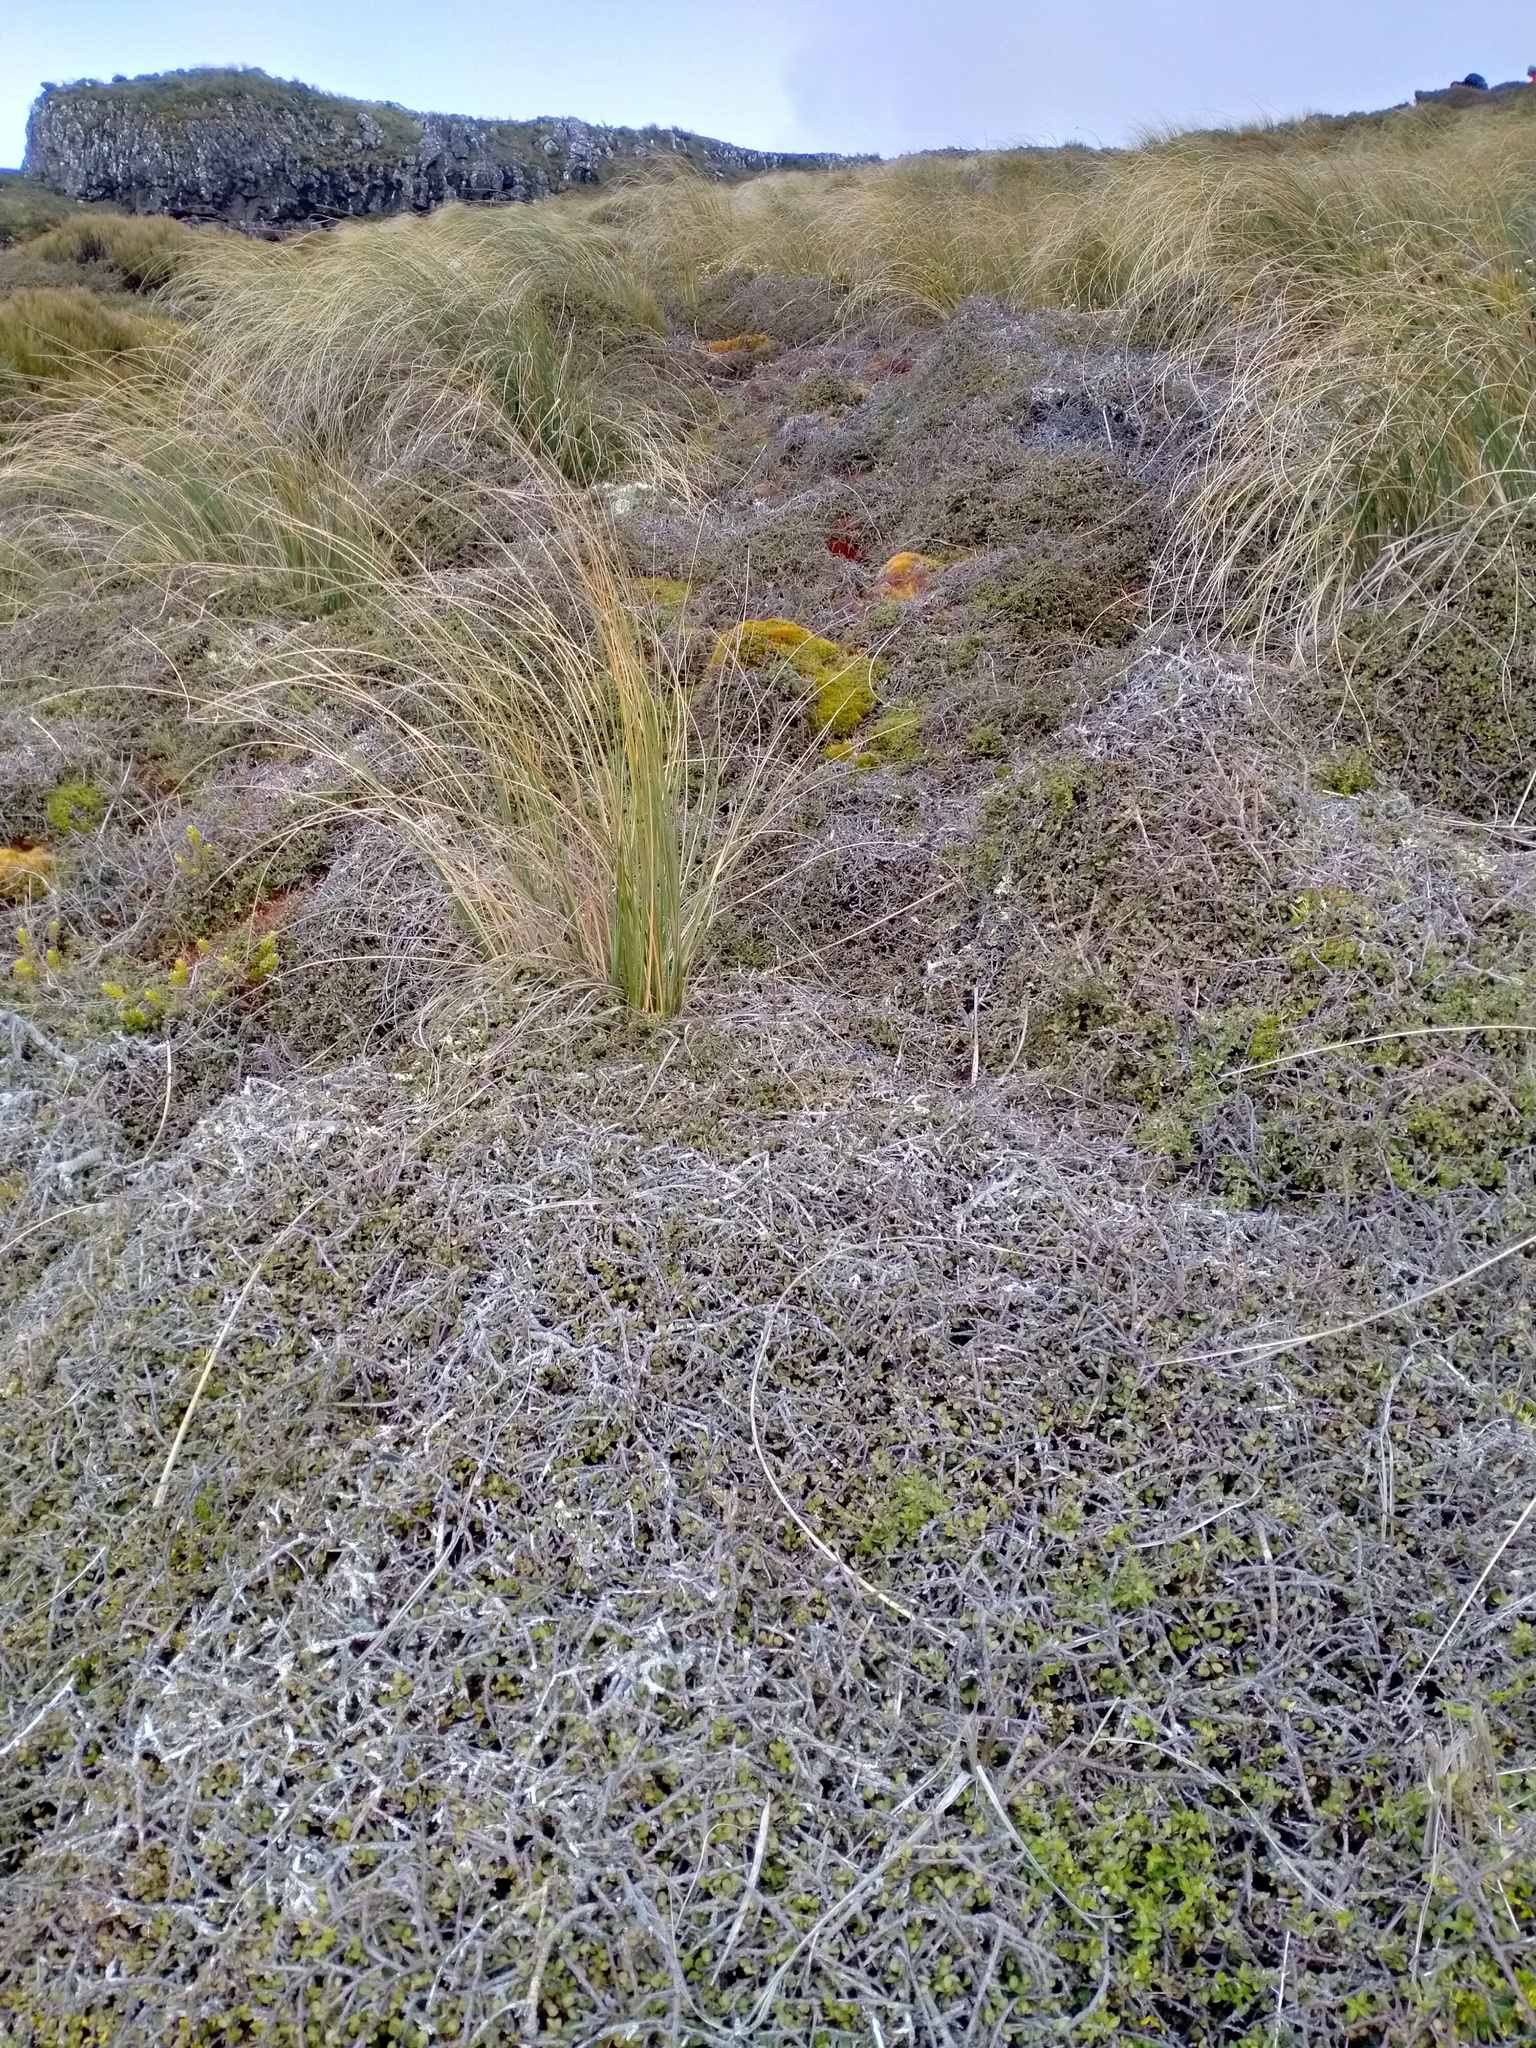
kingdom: Plantae
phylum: Tracheophyta
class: Magnoliopsida
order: Ericales
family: Primulaceae
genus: Myrsine
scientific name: Myrsine divaricata
